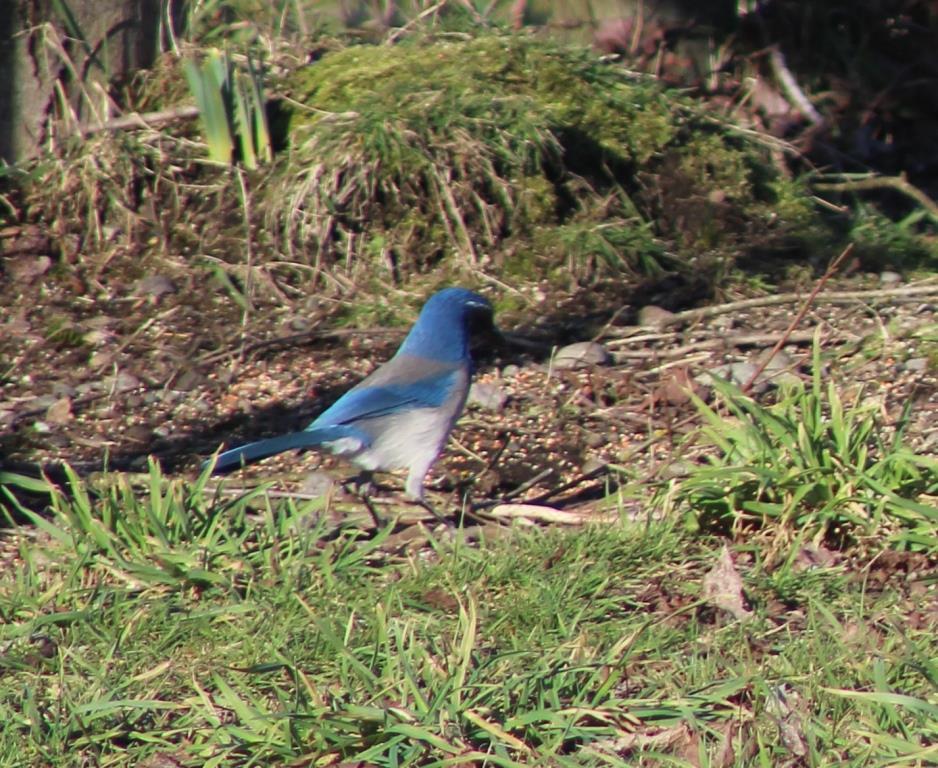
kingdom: Animalia
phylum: Chordata
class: Aves
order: Passeriformes
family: Corvidae
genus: Aphelocoma
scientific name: Aphelocoma californica
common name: California scrub-jay
